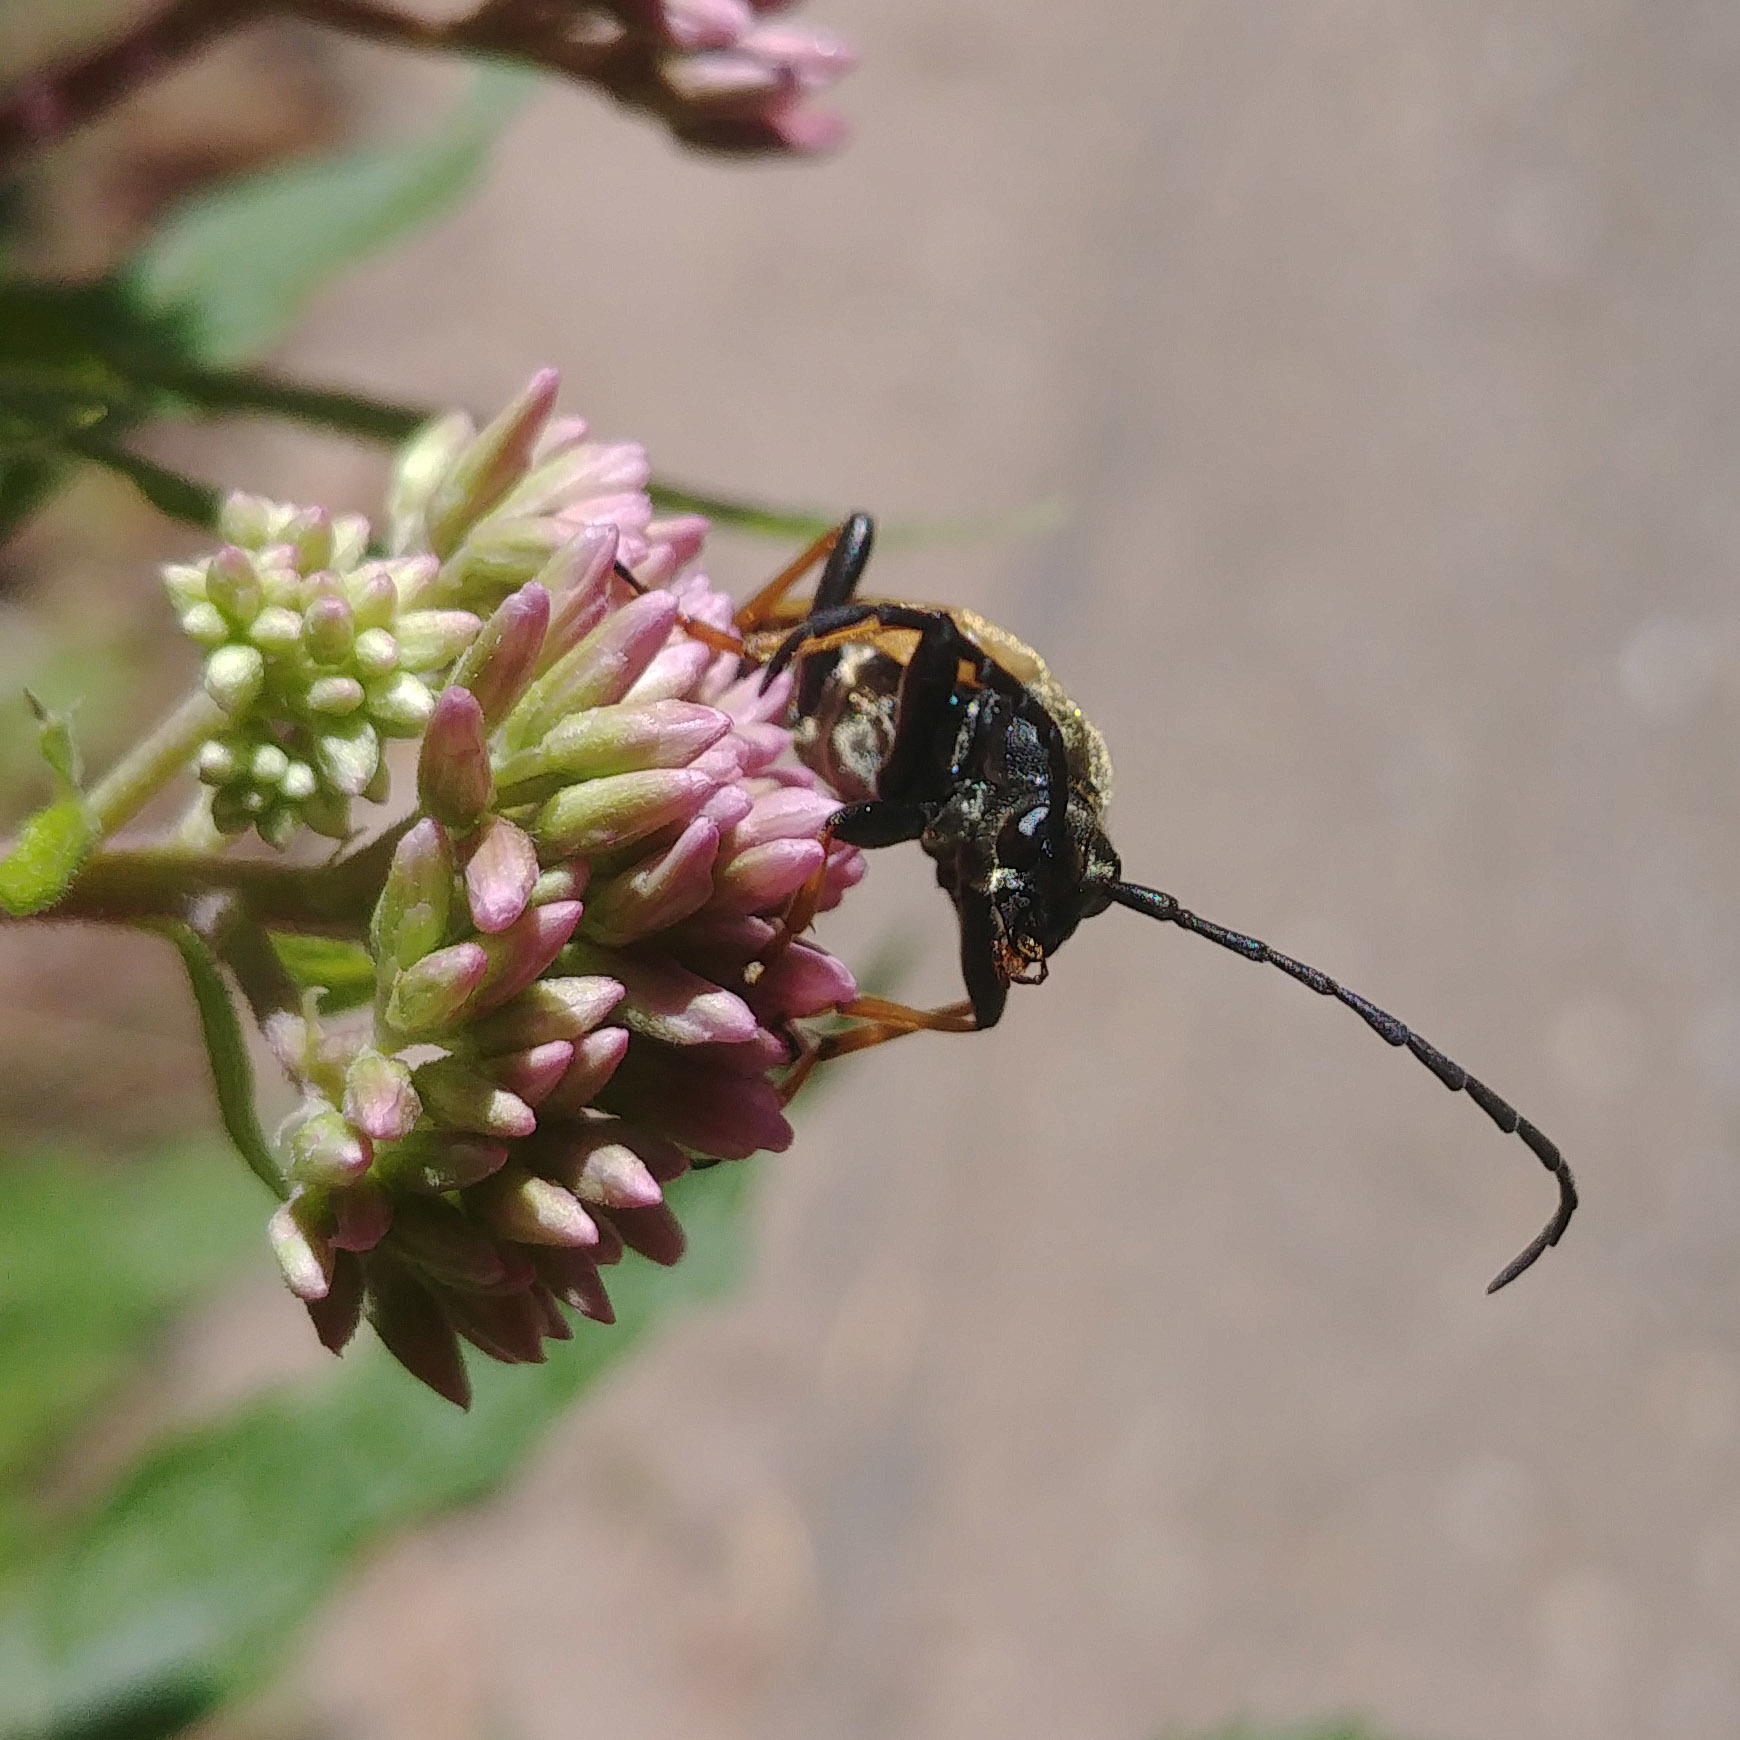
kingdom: Animalia
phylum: Arthropoda
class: Insecta
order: Coleoptera
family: Cerambycidae
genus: Stictoleptura
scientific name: Stictoleptura rubra
